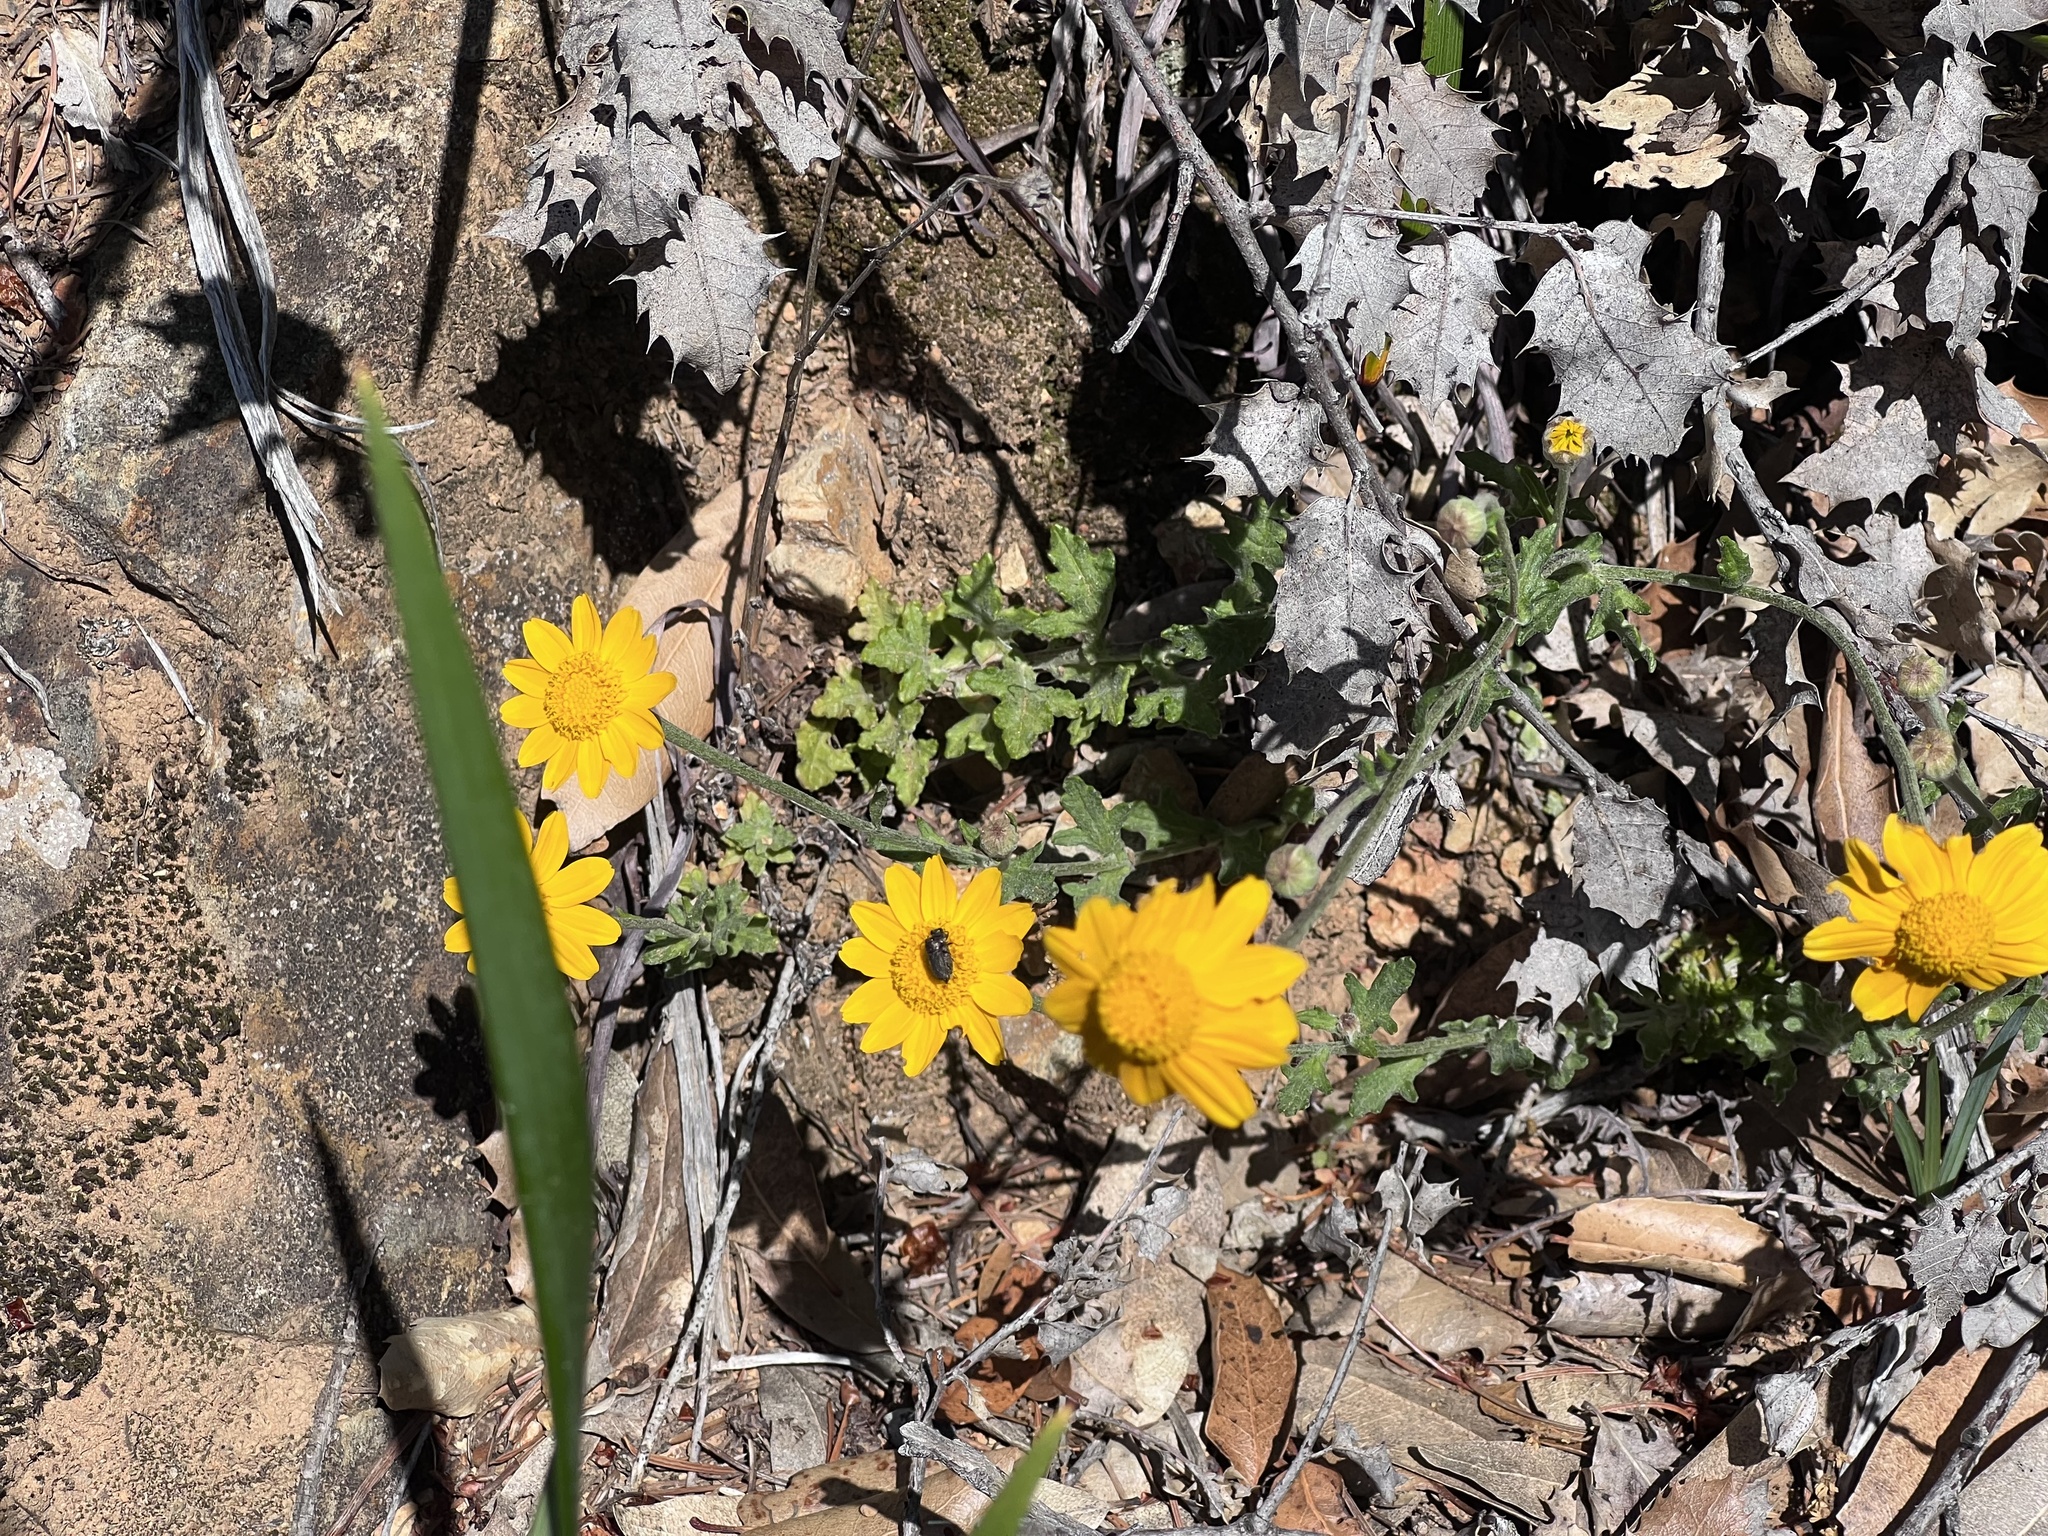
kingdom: Plantae
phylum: Tracheophyta
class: Magnoliopsida
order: Asterales
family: Asteraceae
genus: Eriophyllum
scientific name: Eriophyllum lanatum
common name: Common woolly-sunflower
